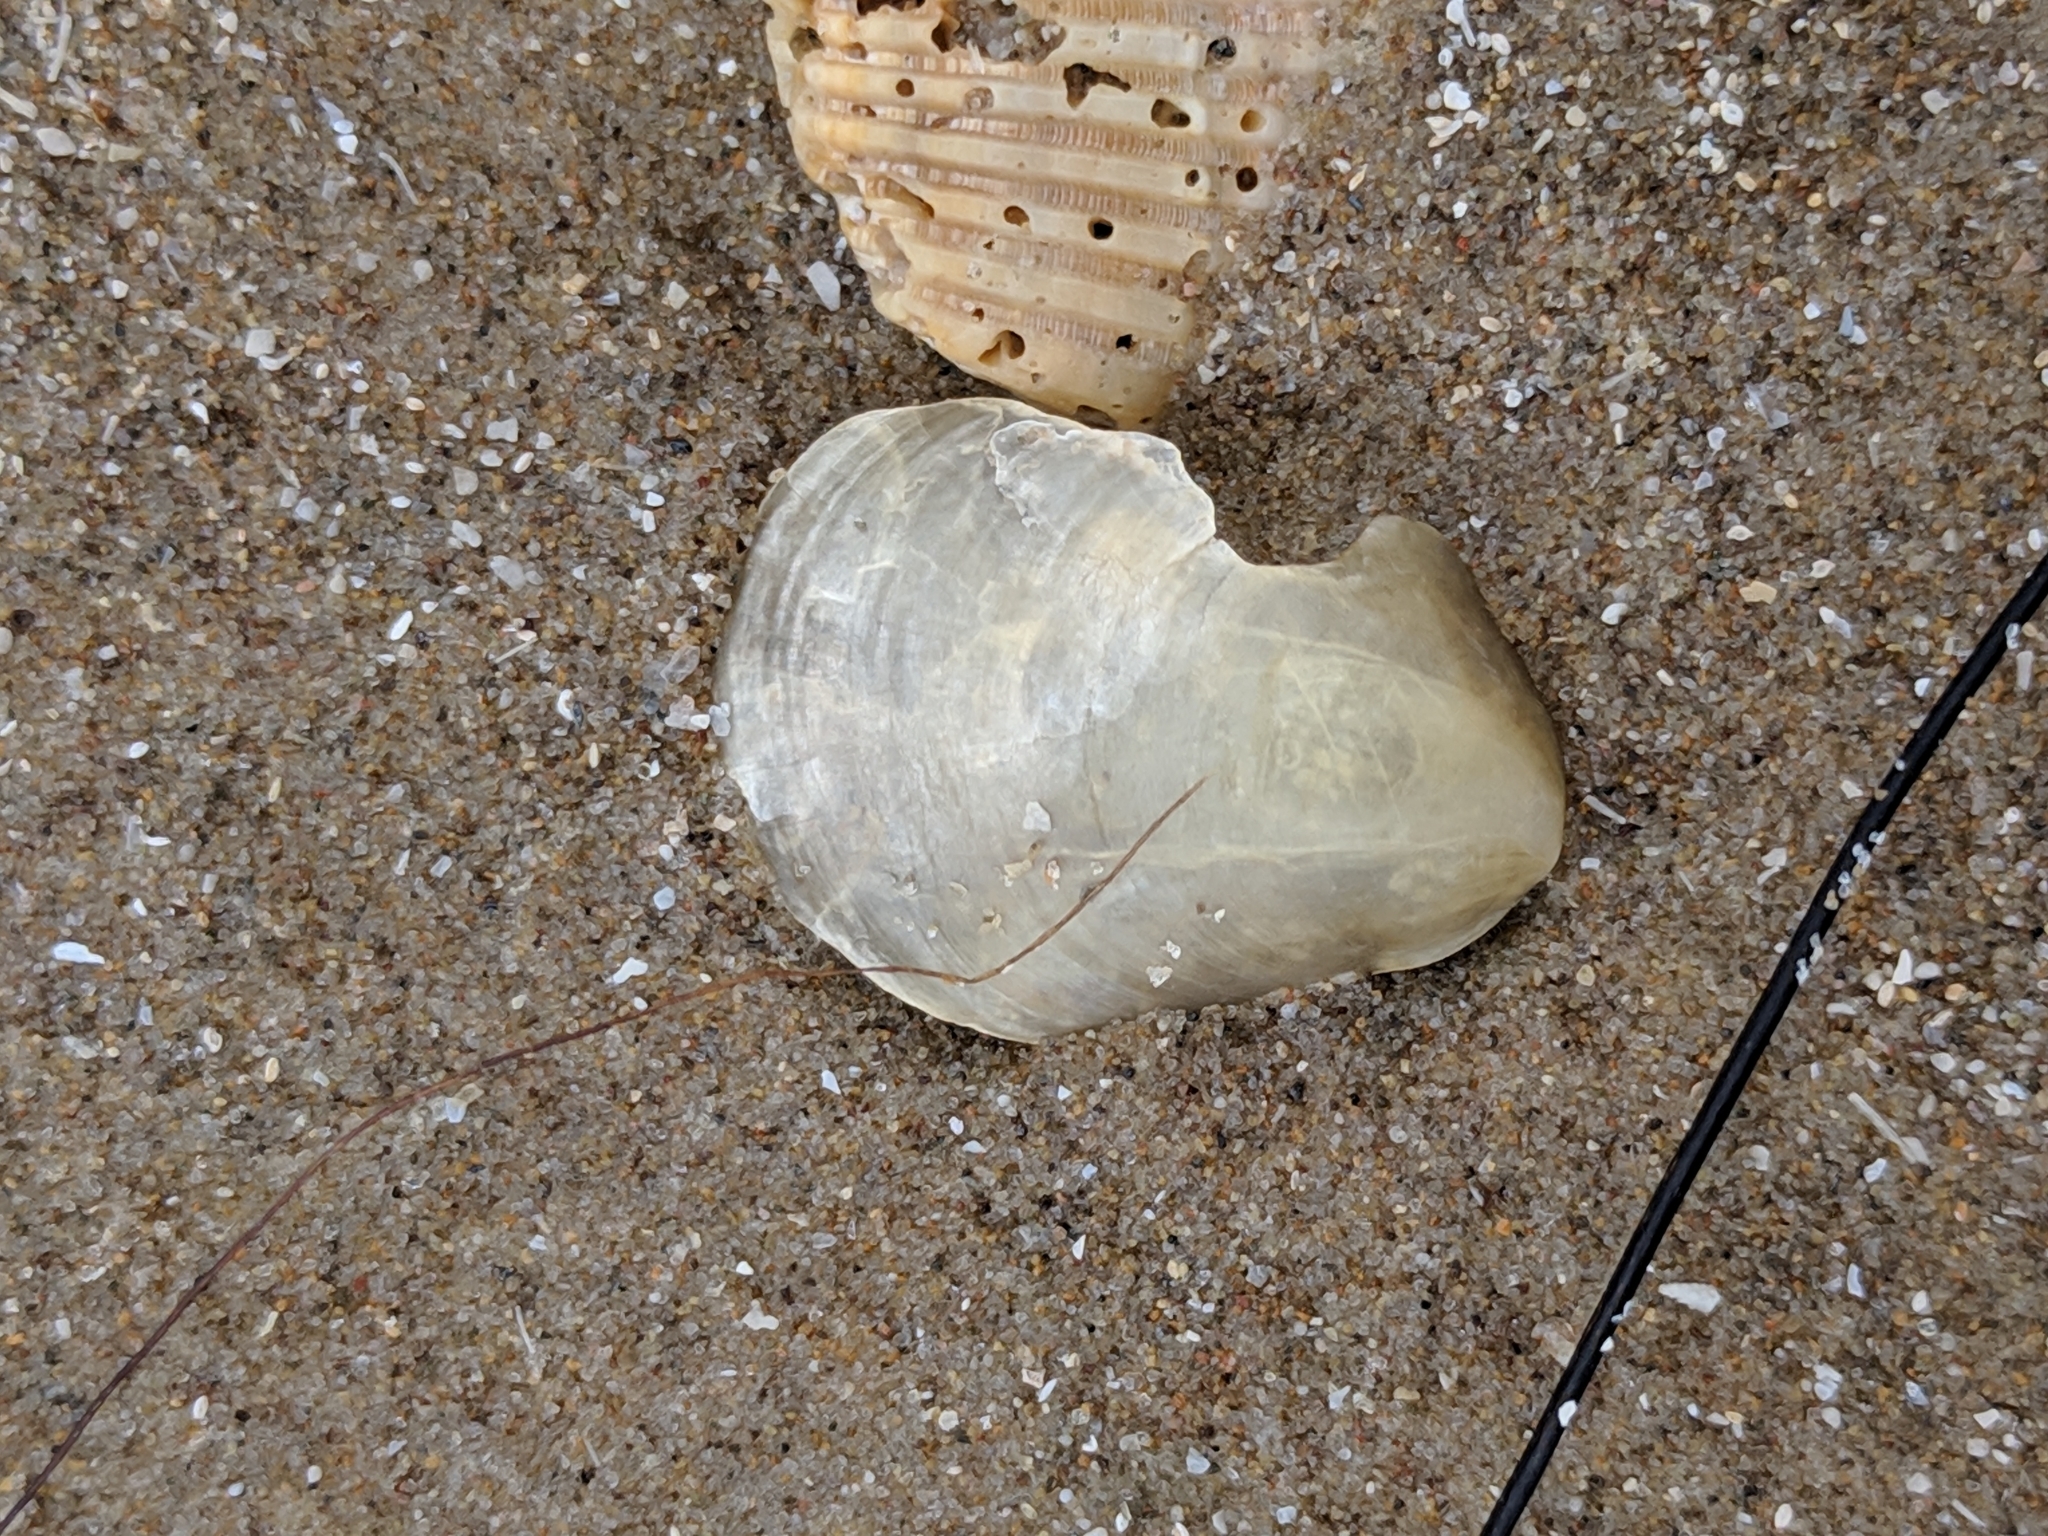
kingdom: Animalia
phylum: Mollusca
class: Bivalvia
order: Pectinida
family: Anomiidae
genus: Anomia
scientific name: Anomia simplex
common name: Common jingle shell
